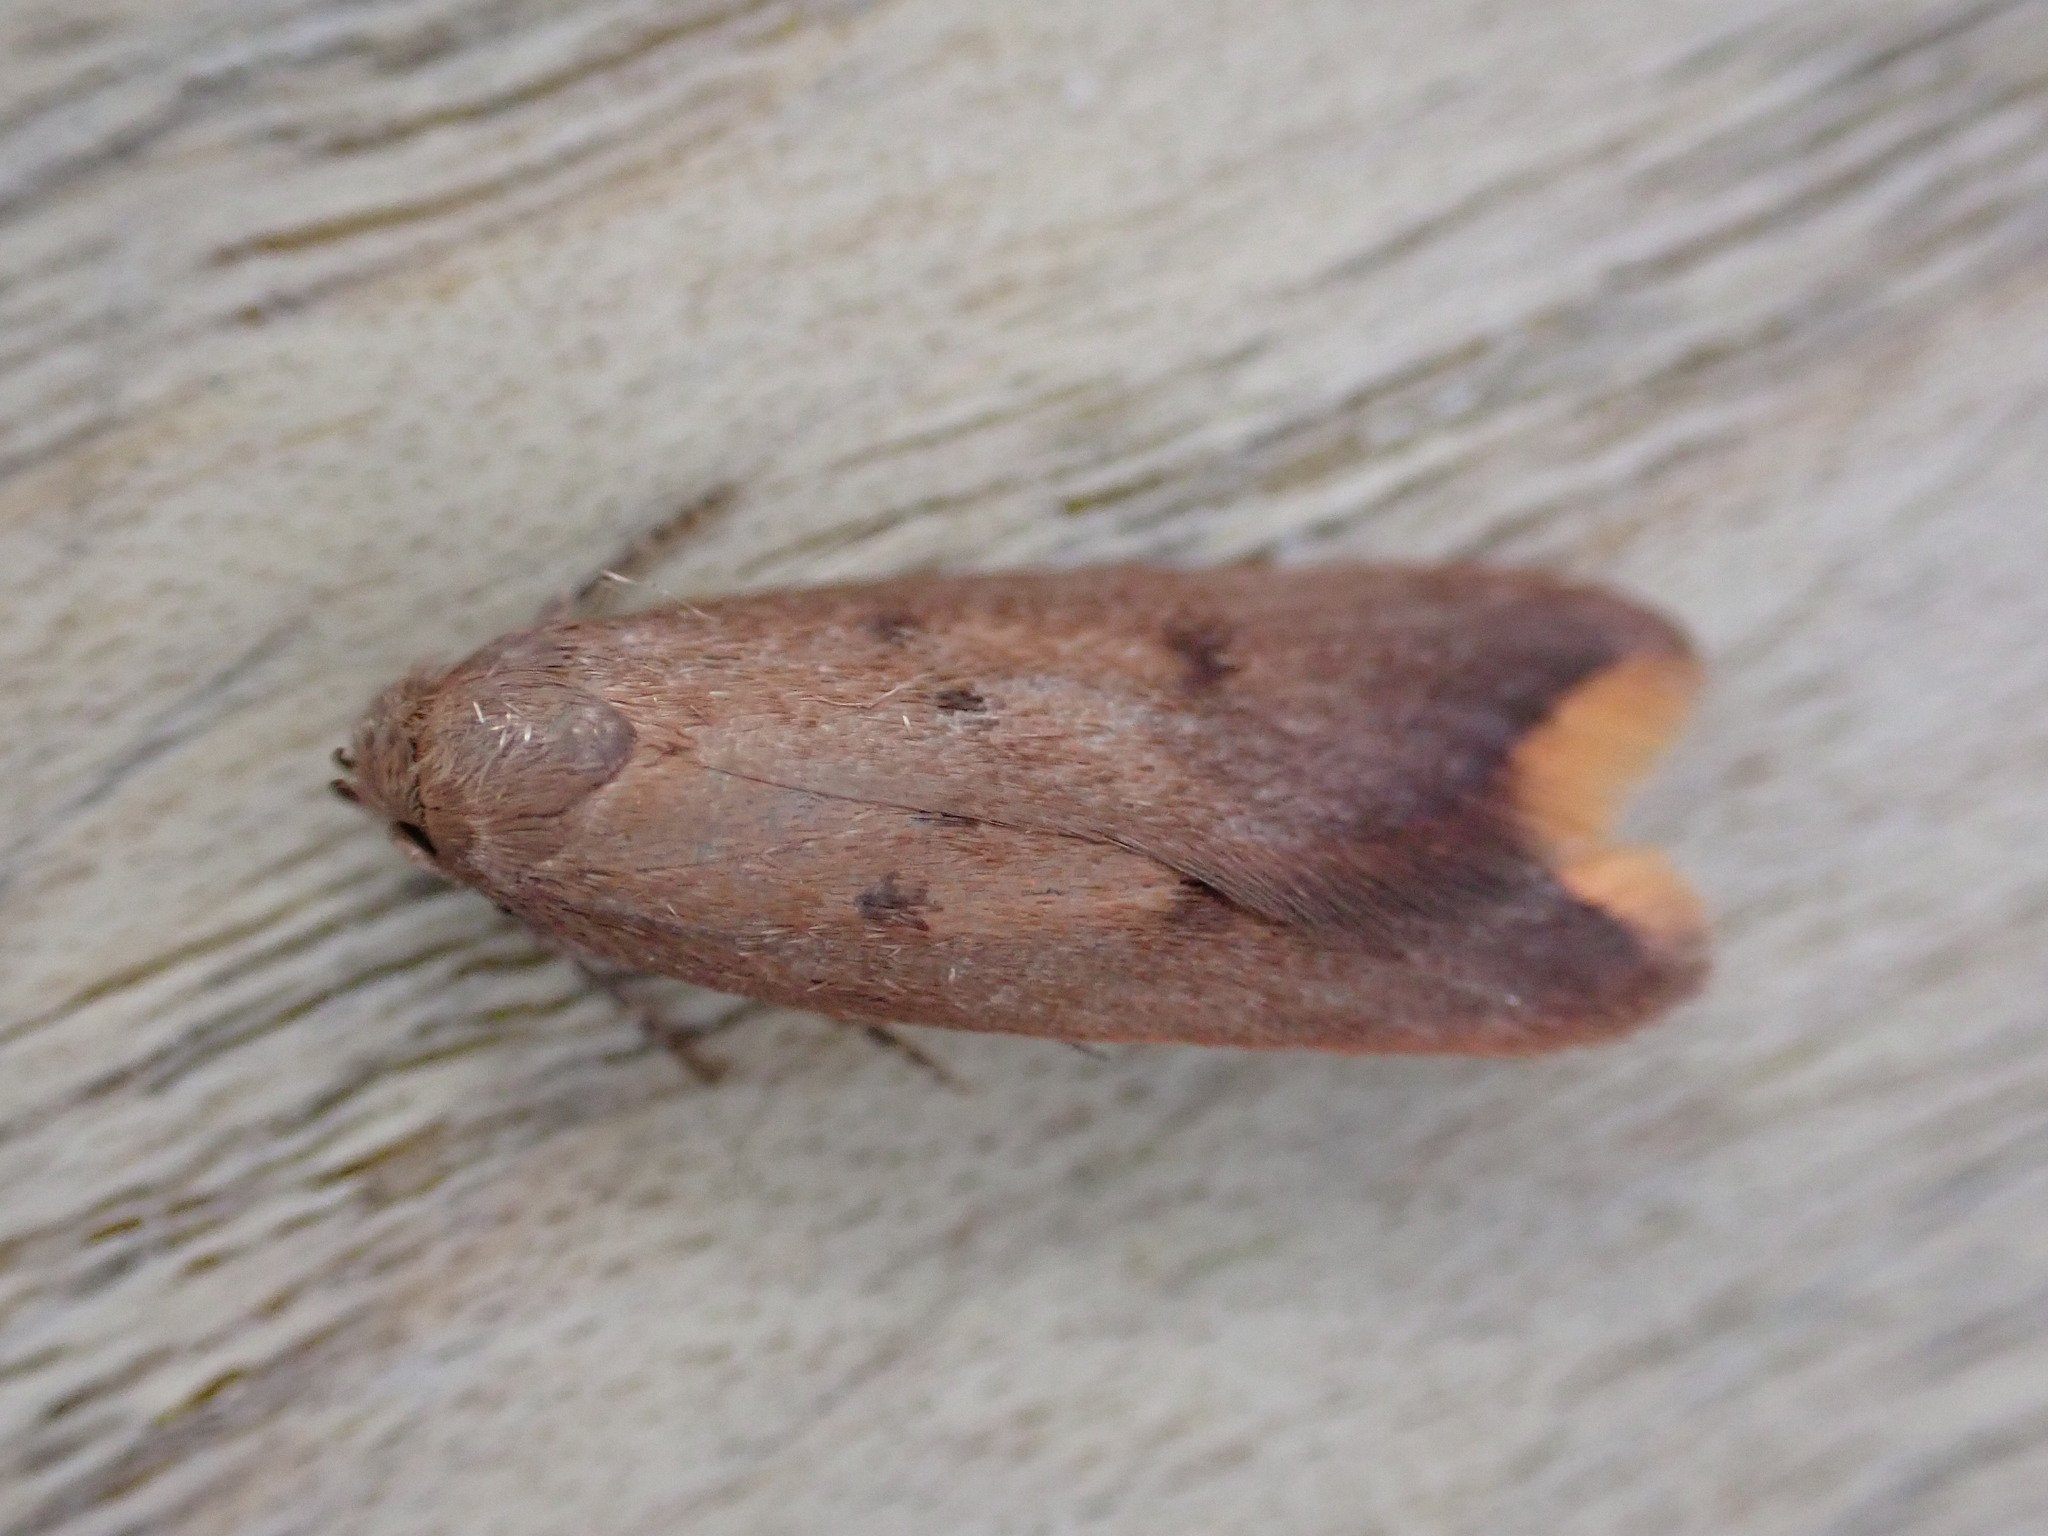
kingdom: Animalia
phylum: Arthropoda
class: Insecta
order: Lepidoptera
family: Oecophoridae
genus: Tachystola
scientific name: Tachystola acroxantha
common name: Ruddy streak
